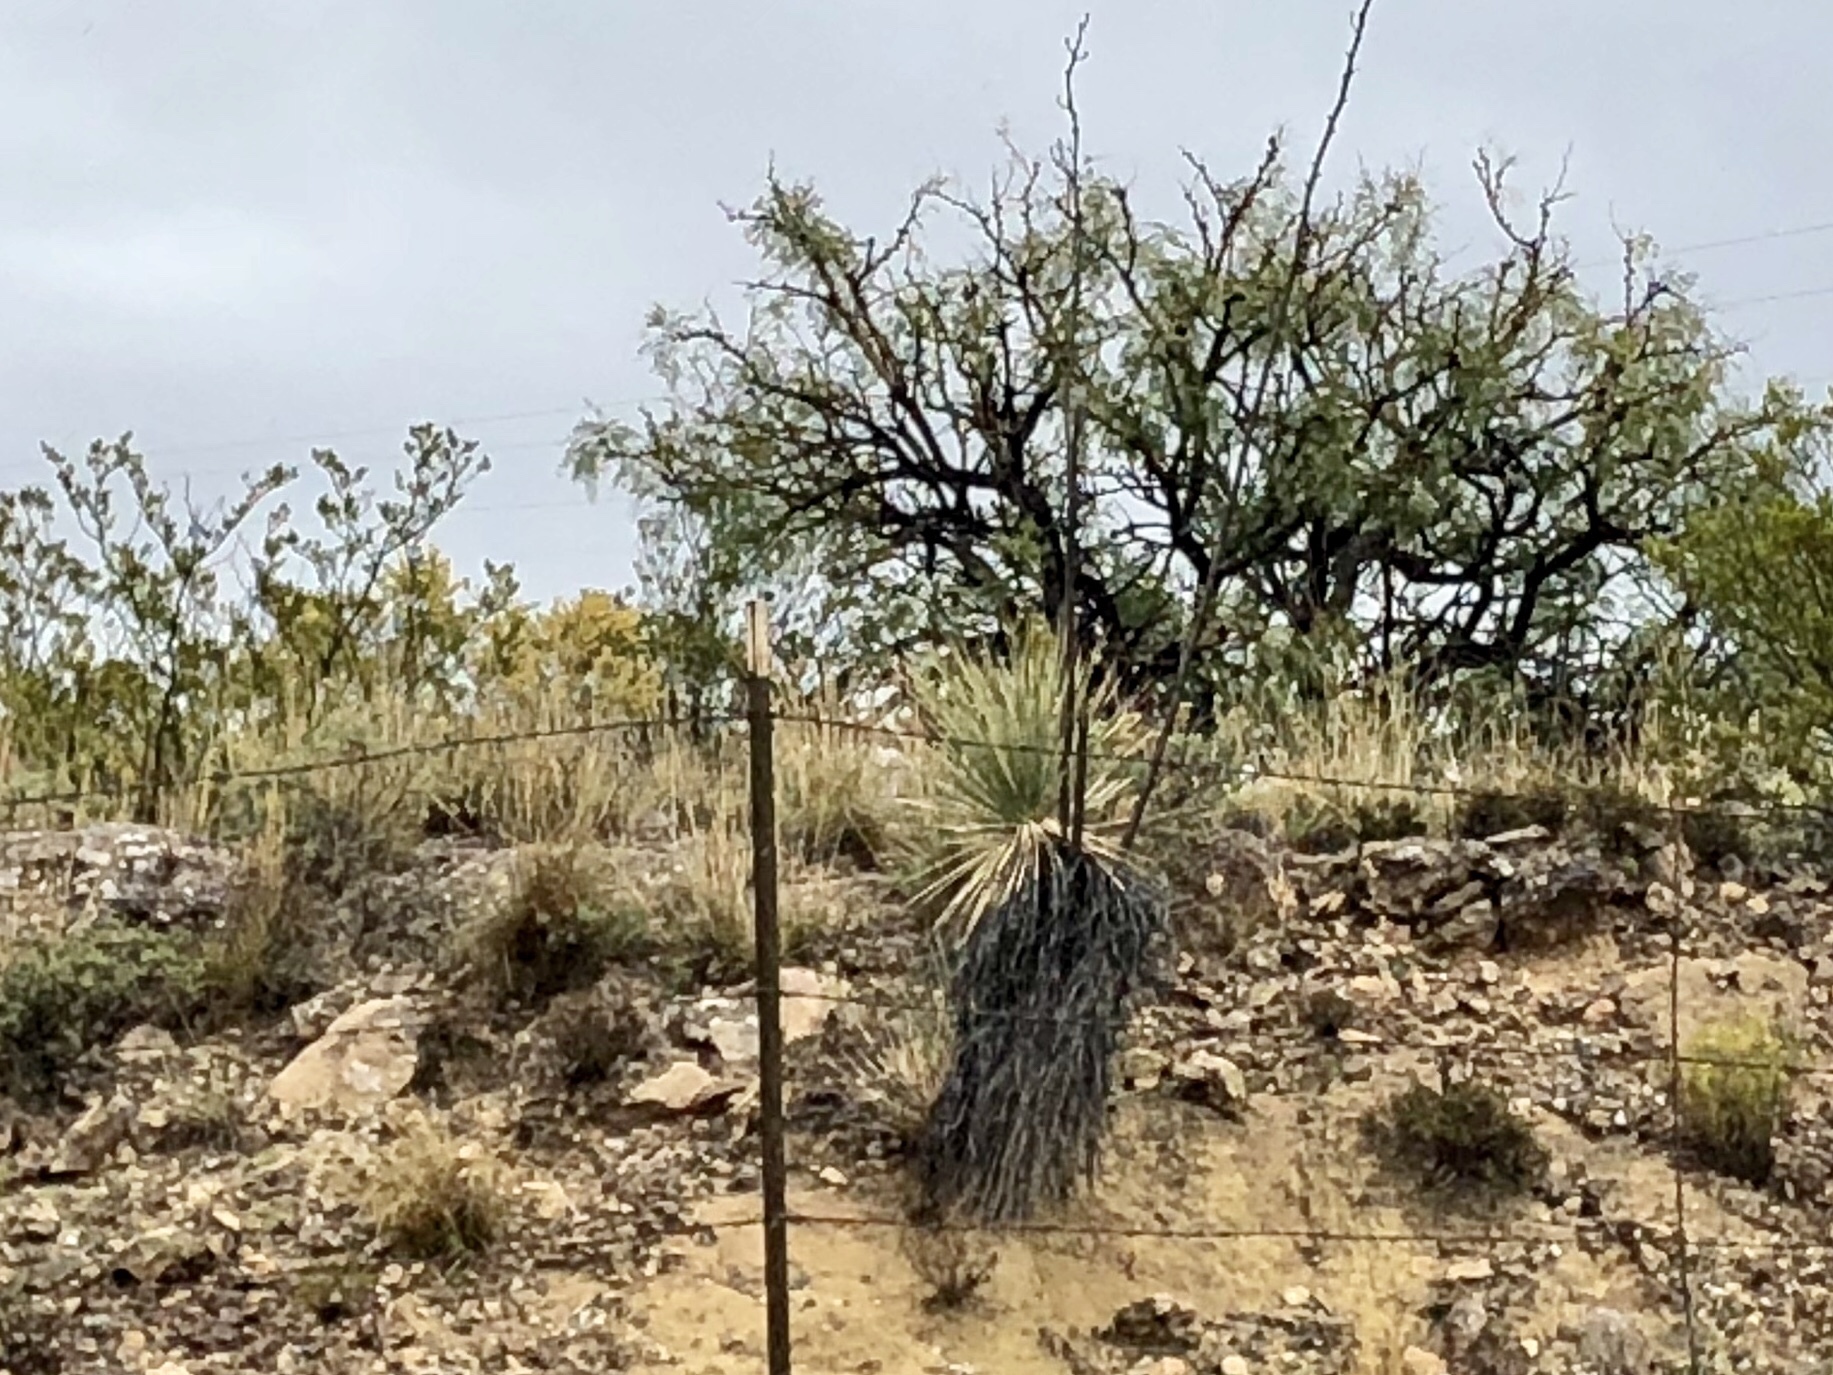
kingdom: Plantae
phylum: Tracheophyta
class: Liliopsida
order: Asparagales
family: Asparagaceae
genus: Yucca
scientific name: Yucca elata
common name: Palmella
